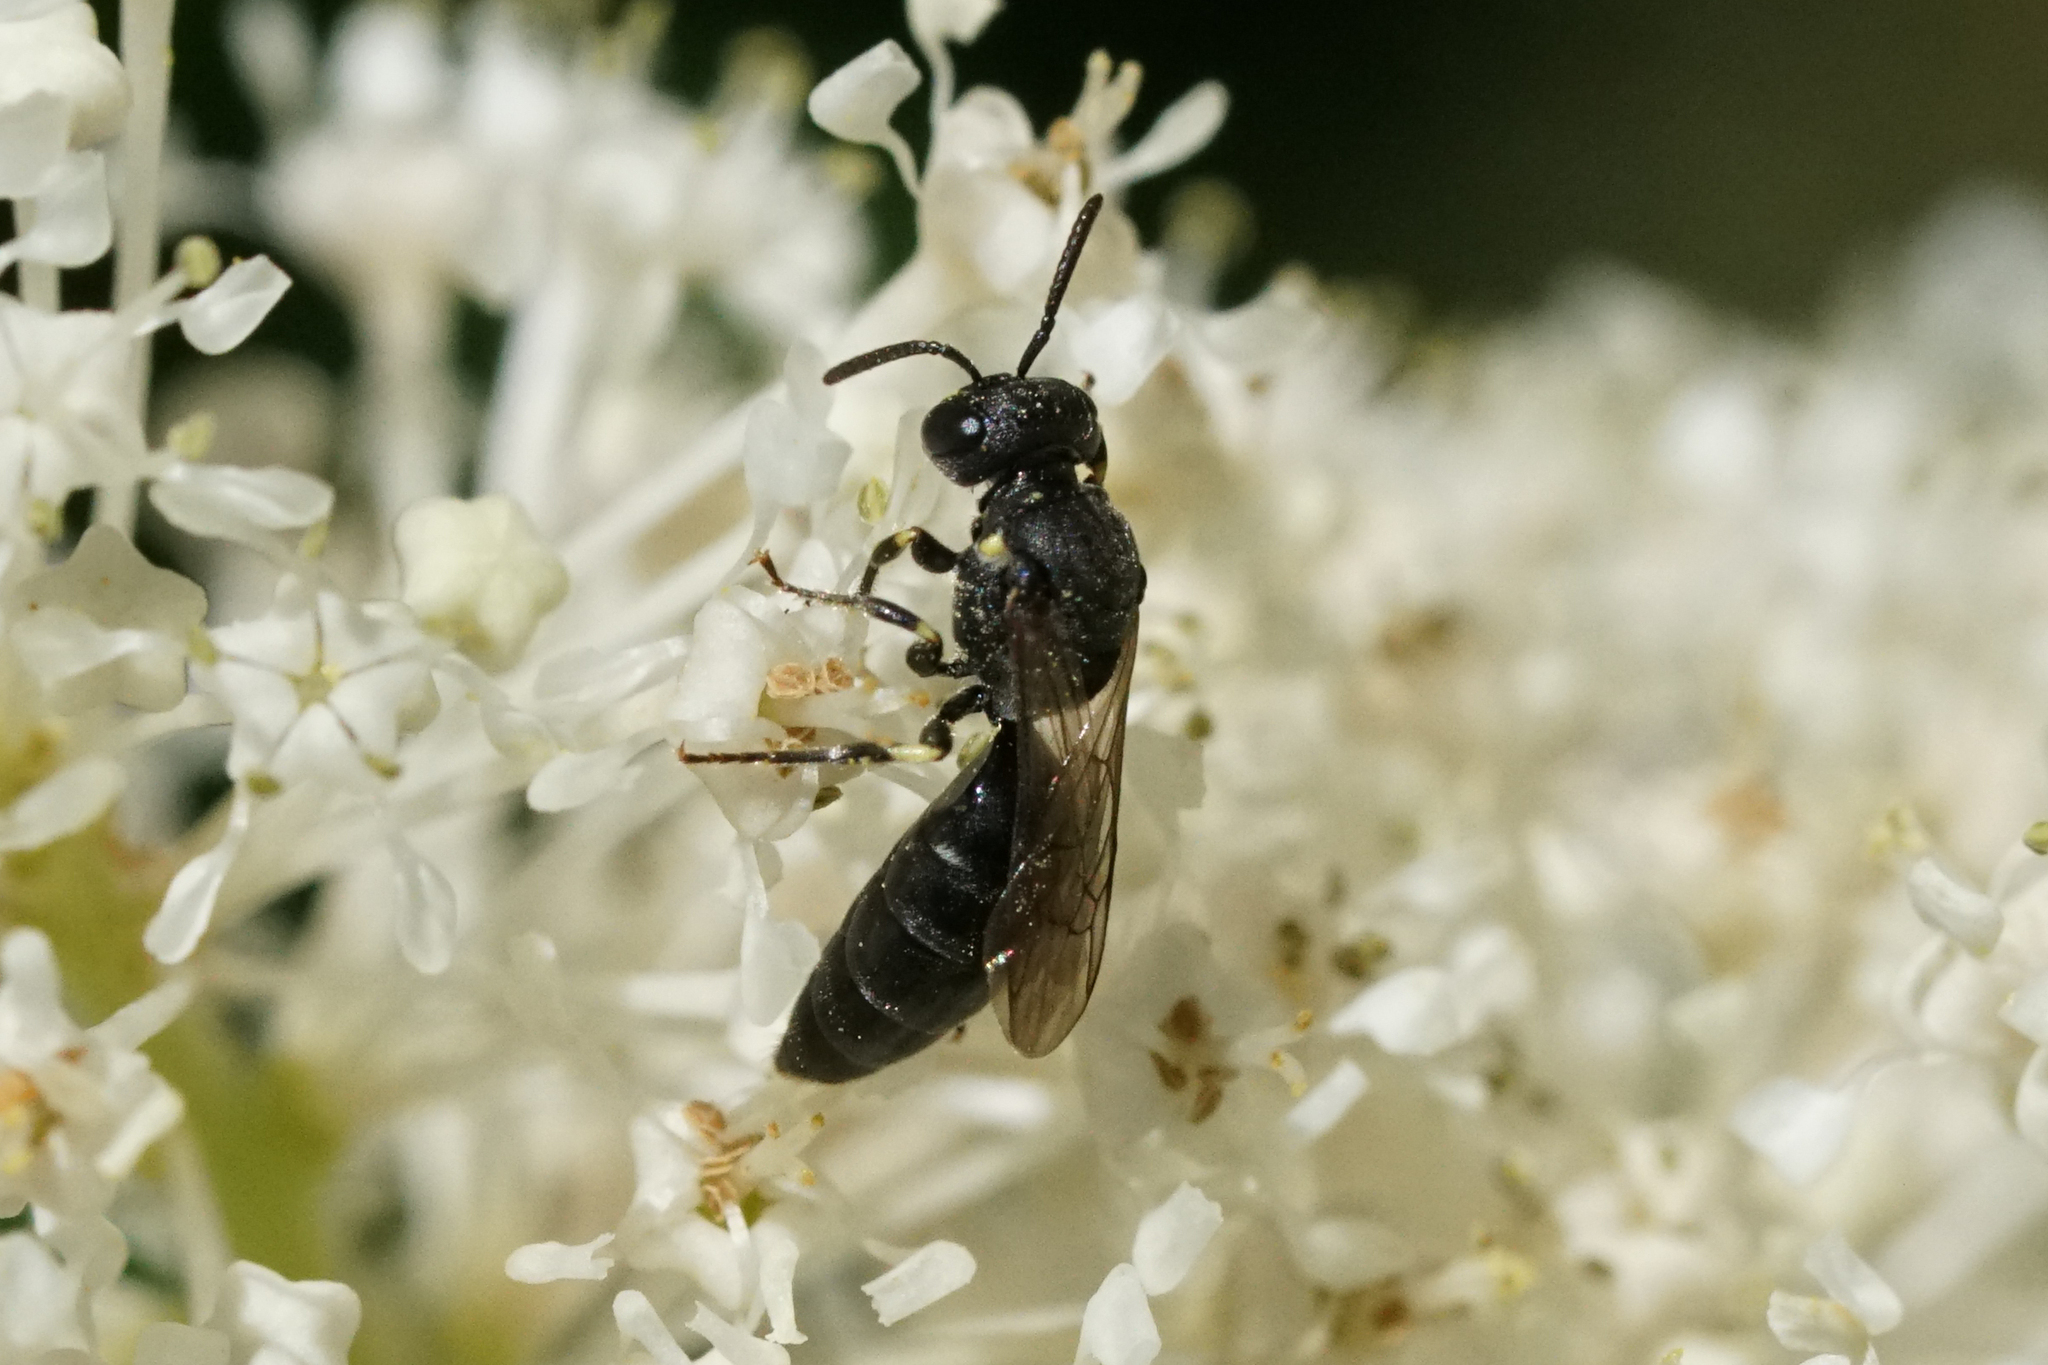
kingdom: Animalia
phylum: Arthropoda
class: Insecta
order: Hymenoptera
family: Colletidae
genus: Hylaeus
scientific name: Hylaeus
